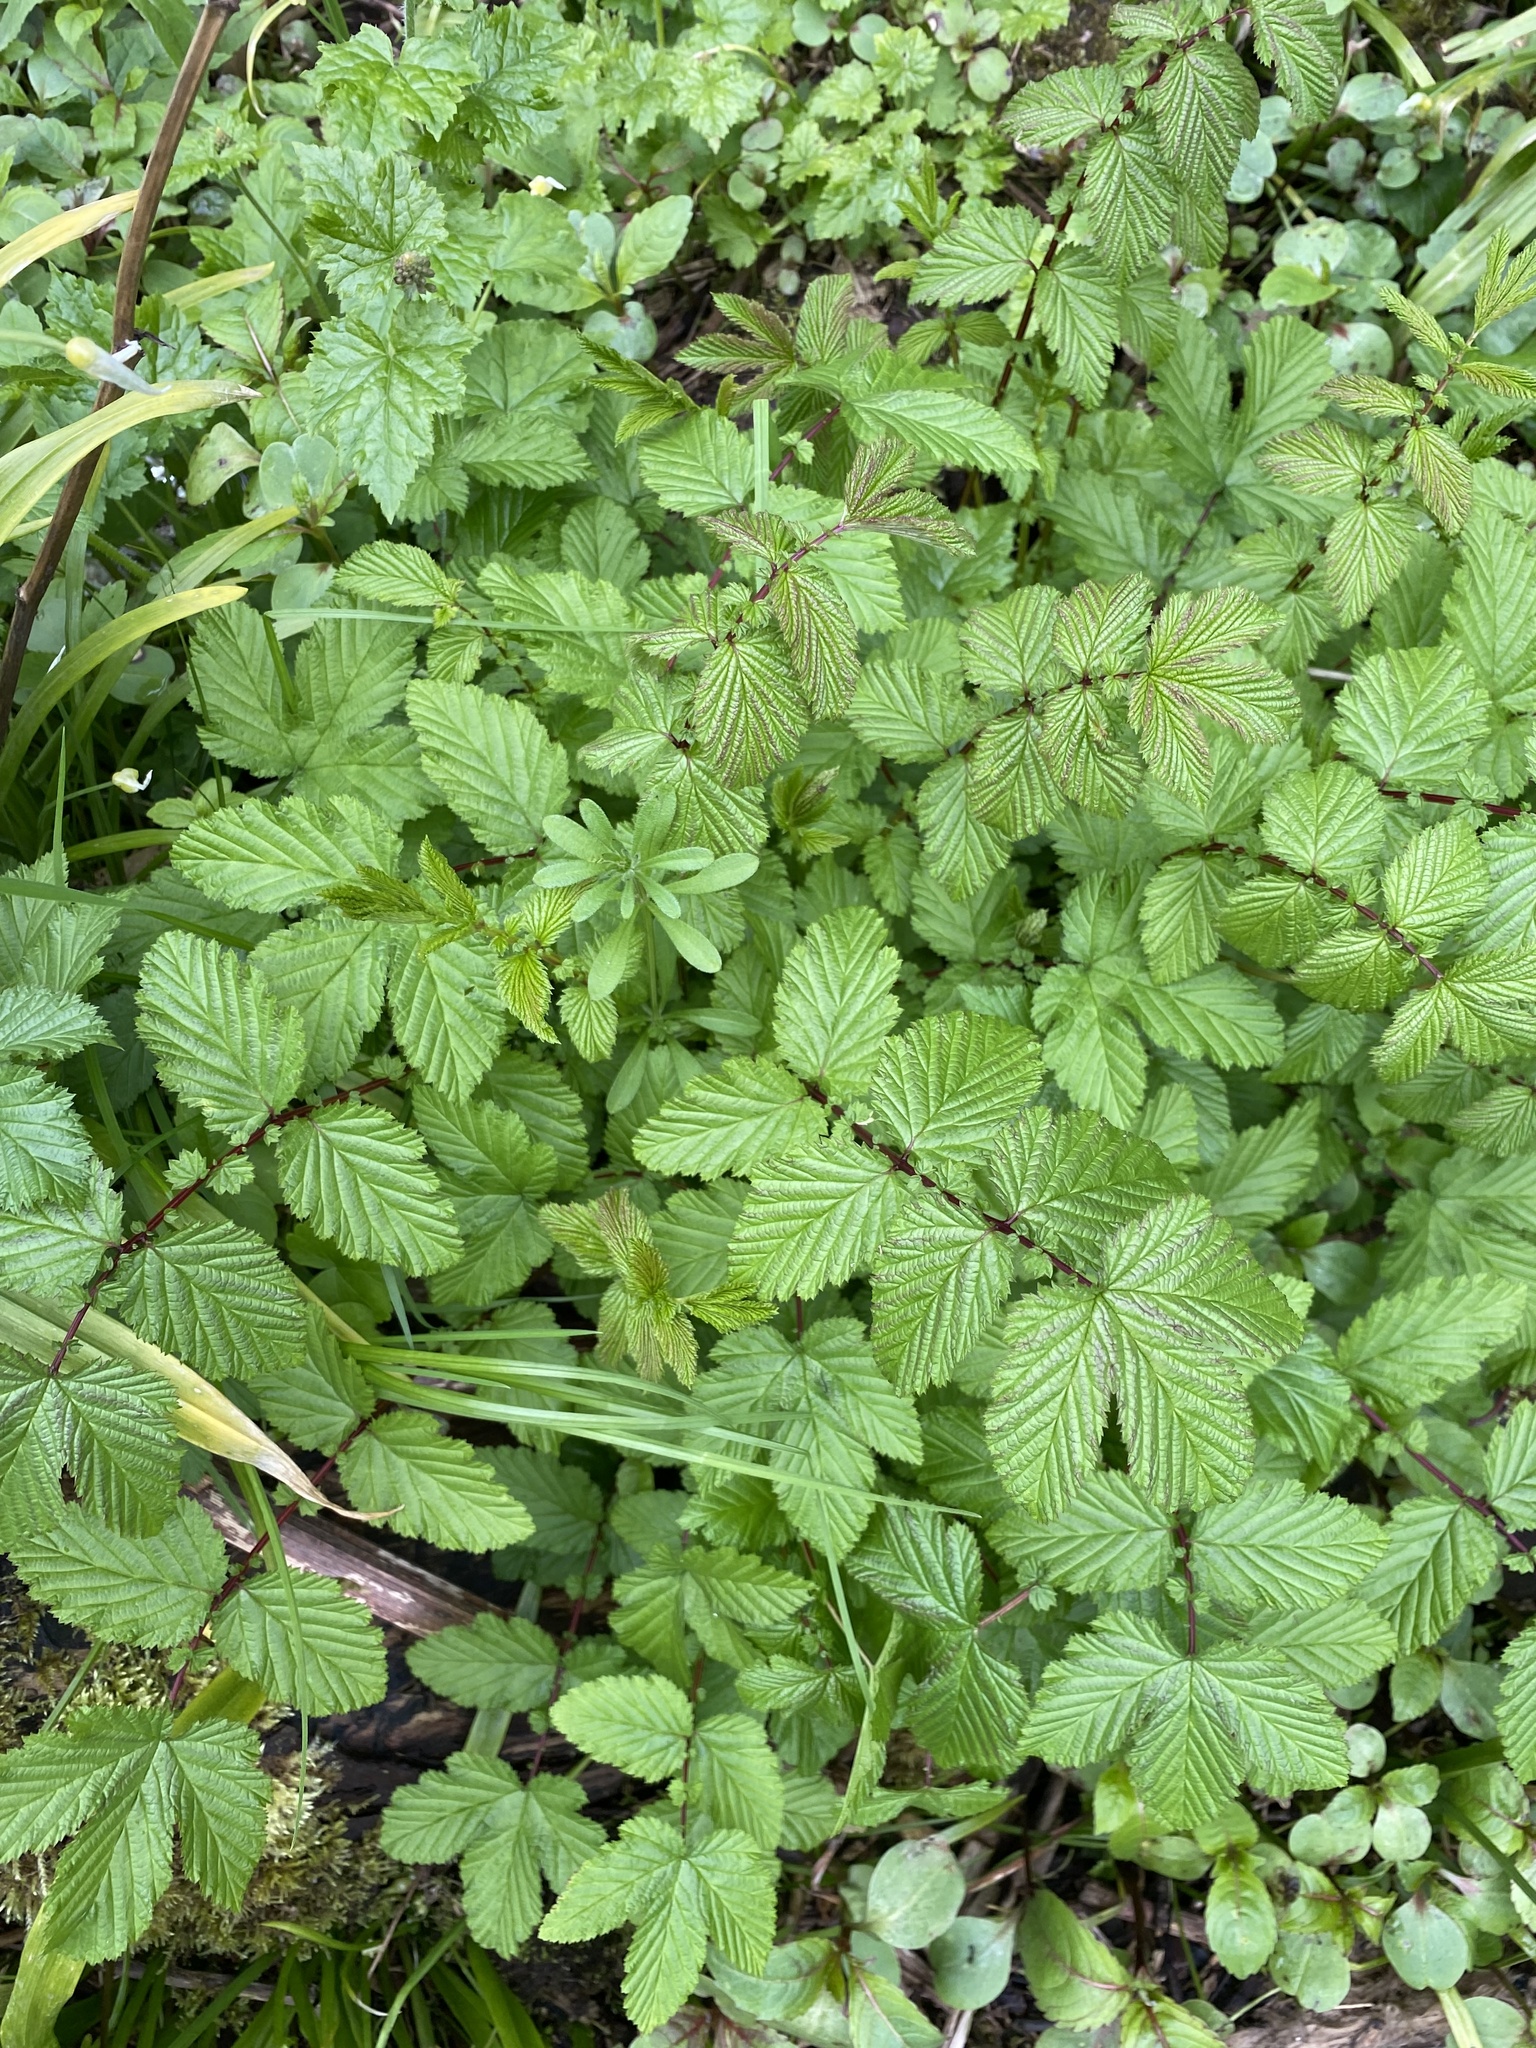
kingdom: Plantae
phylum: Tracheophyta
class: Magnoliopsida
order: Rosales
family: Rosaceae
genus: Filipendula
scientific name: Filipendula ulmaria
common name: Meadowsweet
